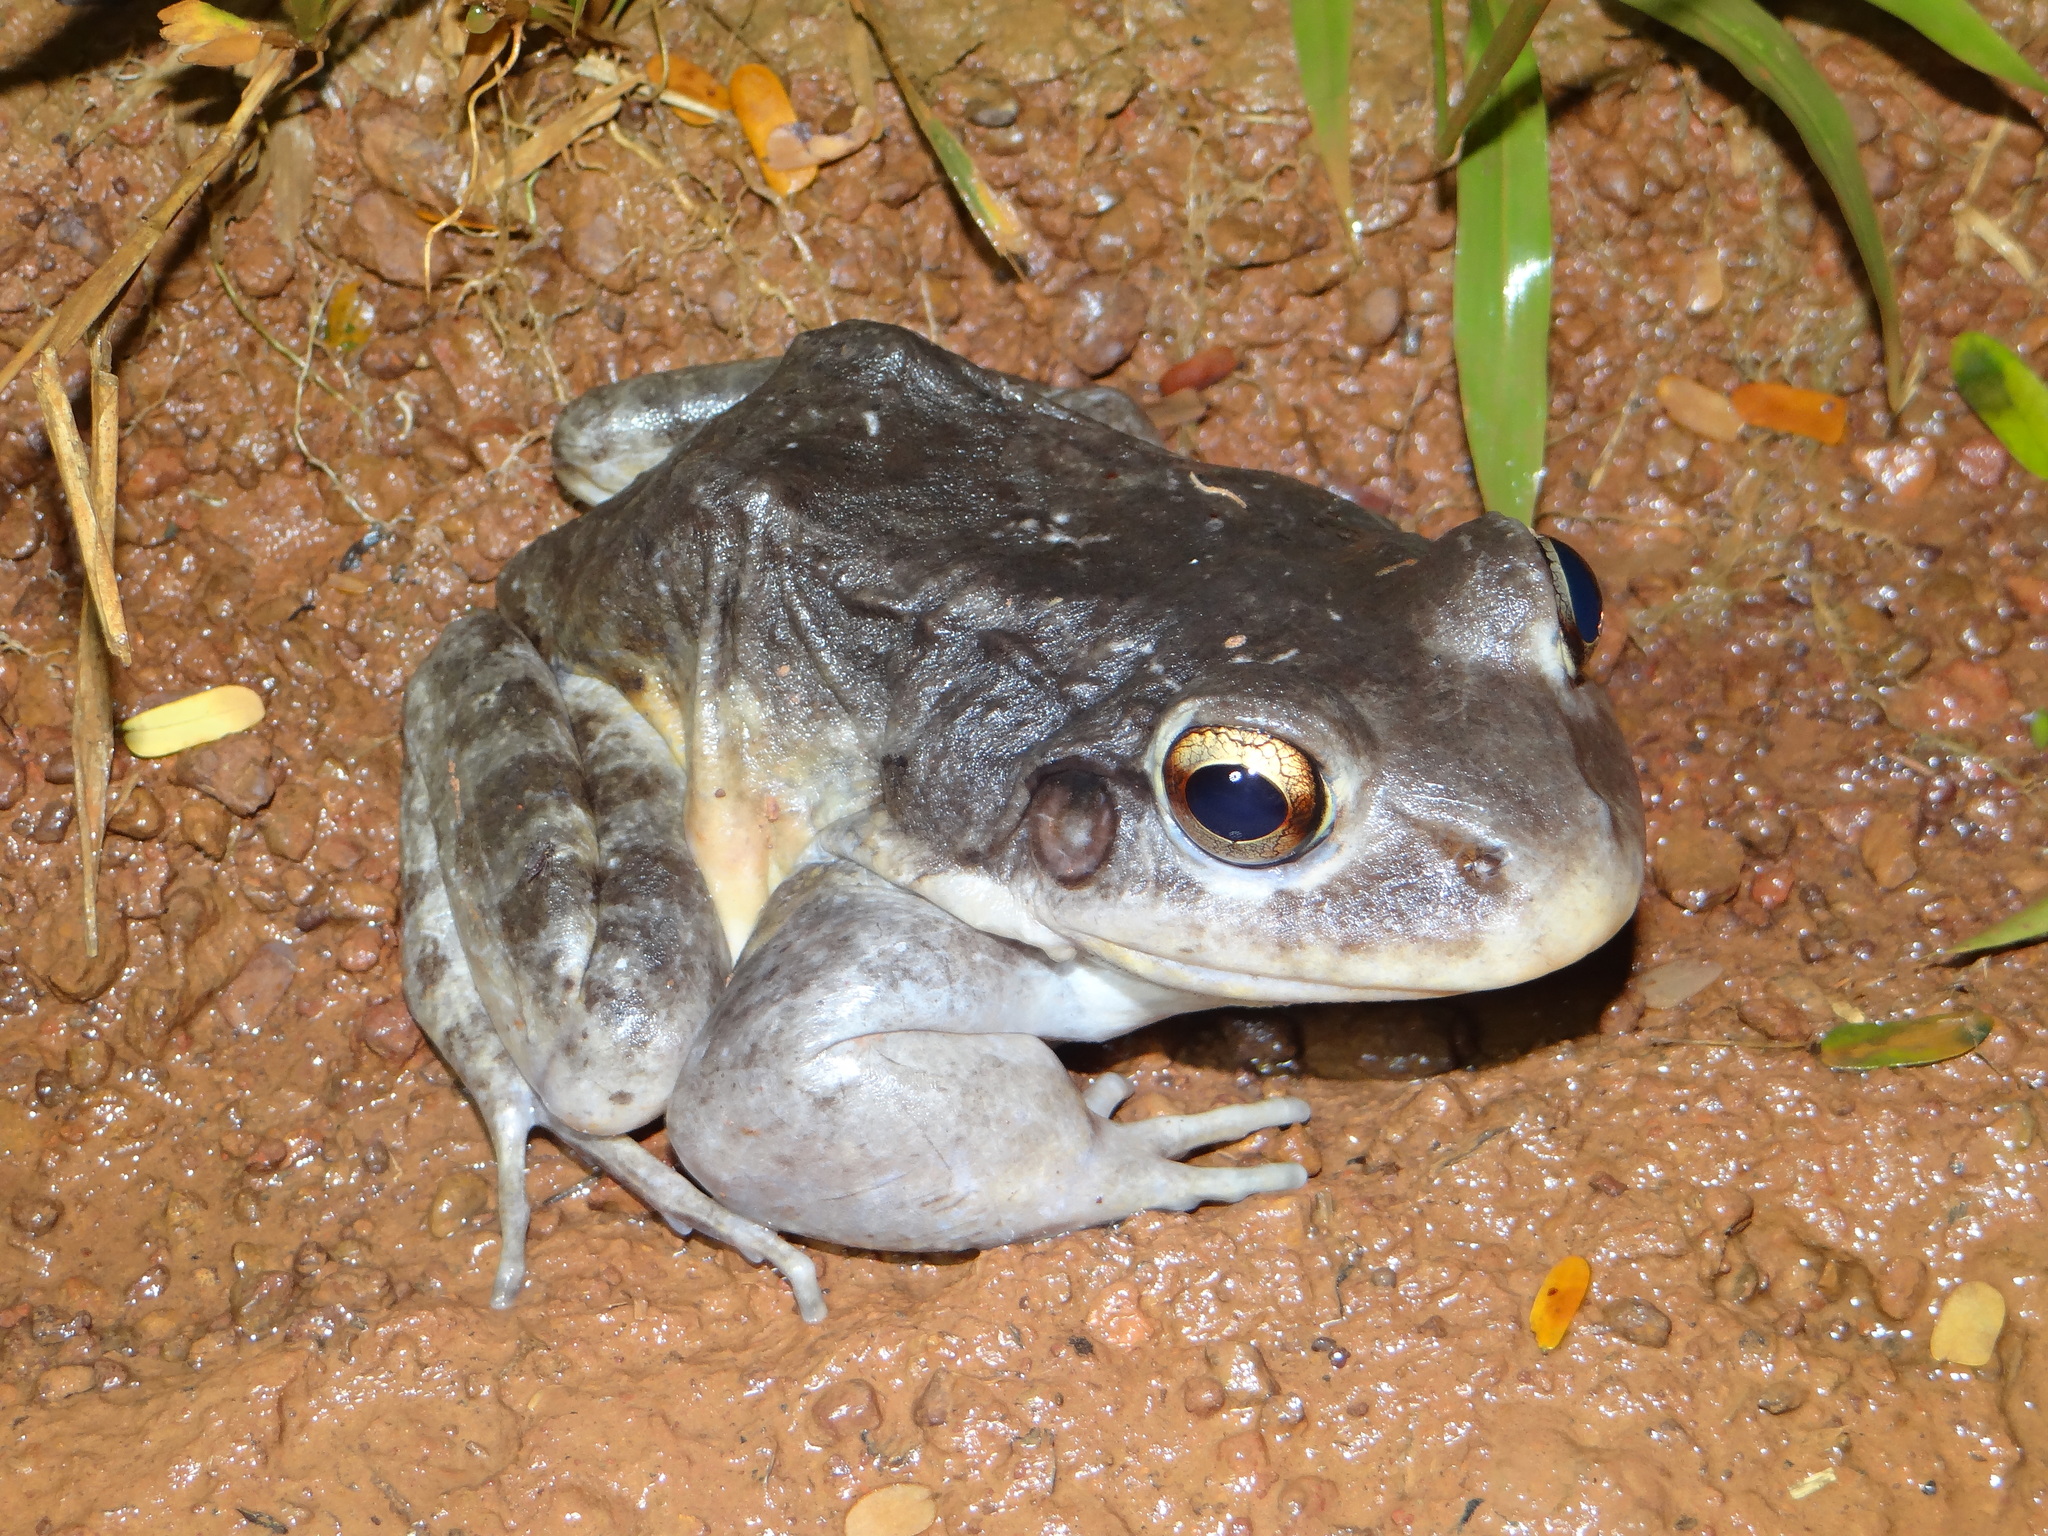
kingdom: Animalia
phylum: Chordata
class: Amphibia
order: Anura
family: Leptodactylidae
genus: Leptodactylus
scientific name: Leptodactylus knudseni
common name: Knudsen's frog
